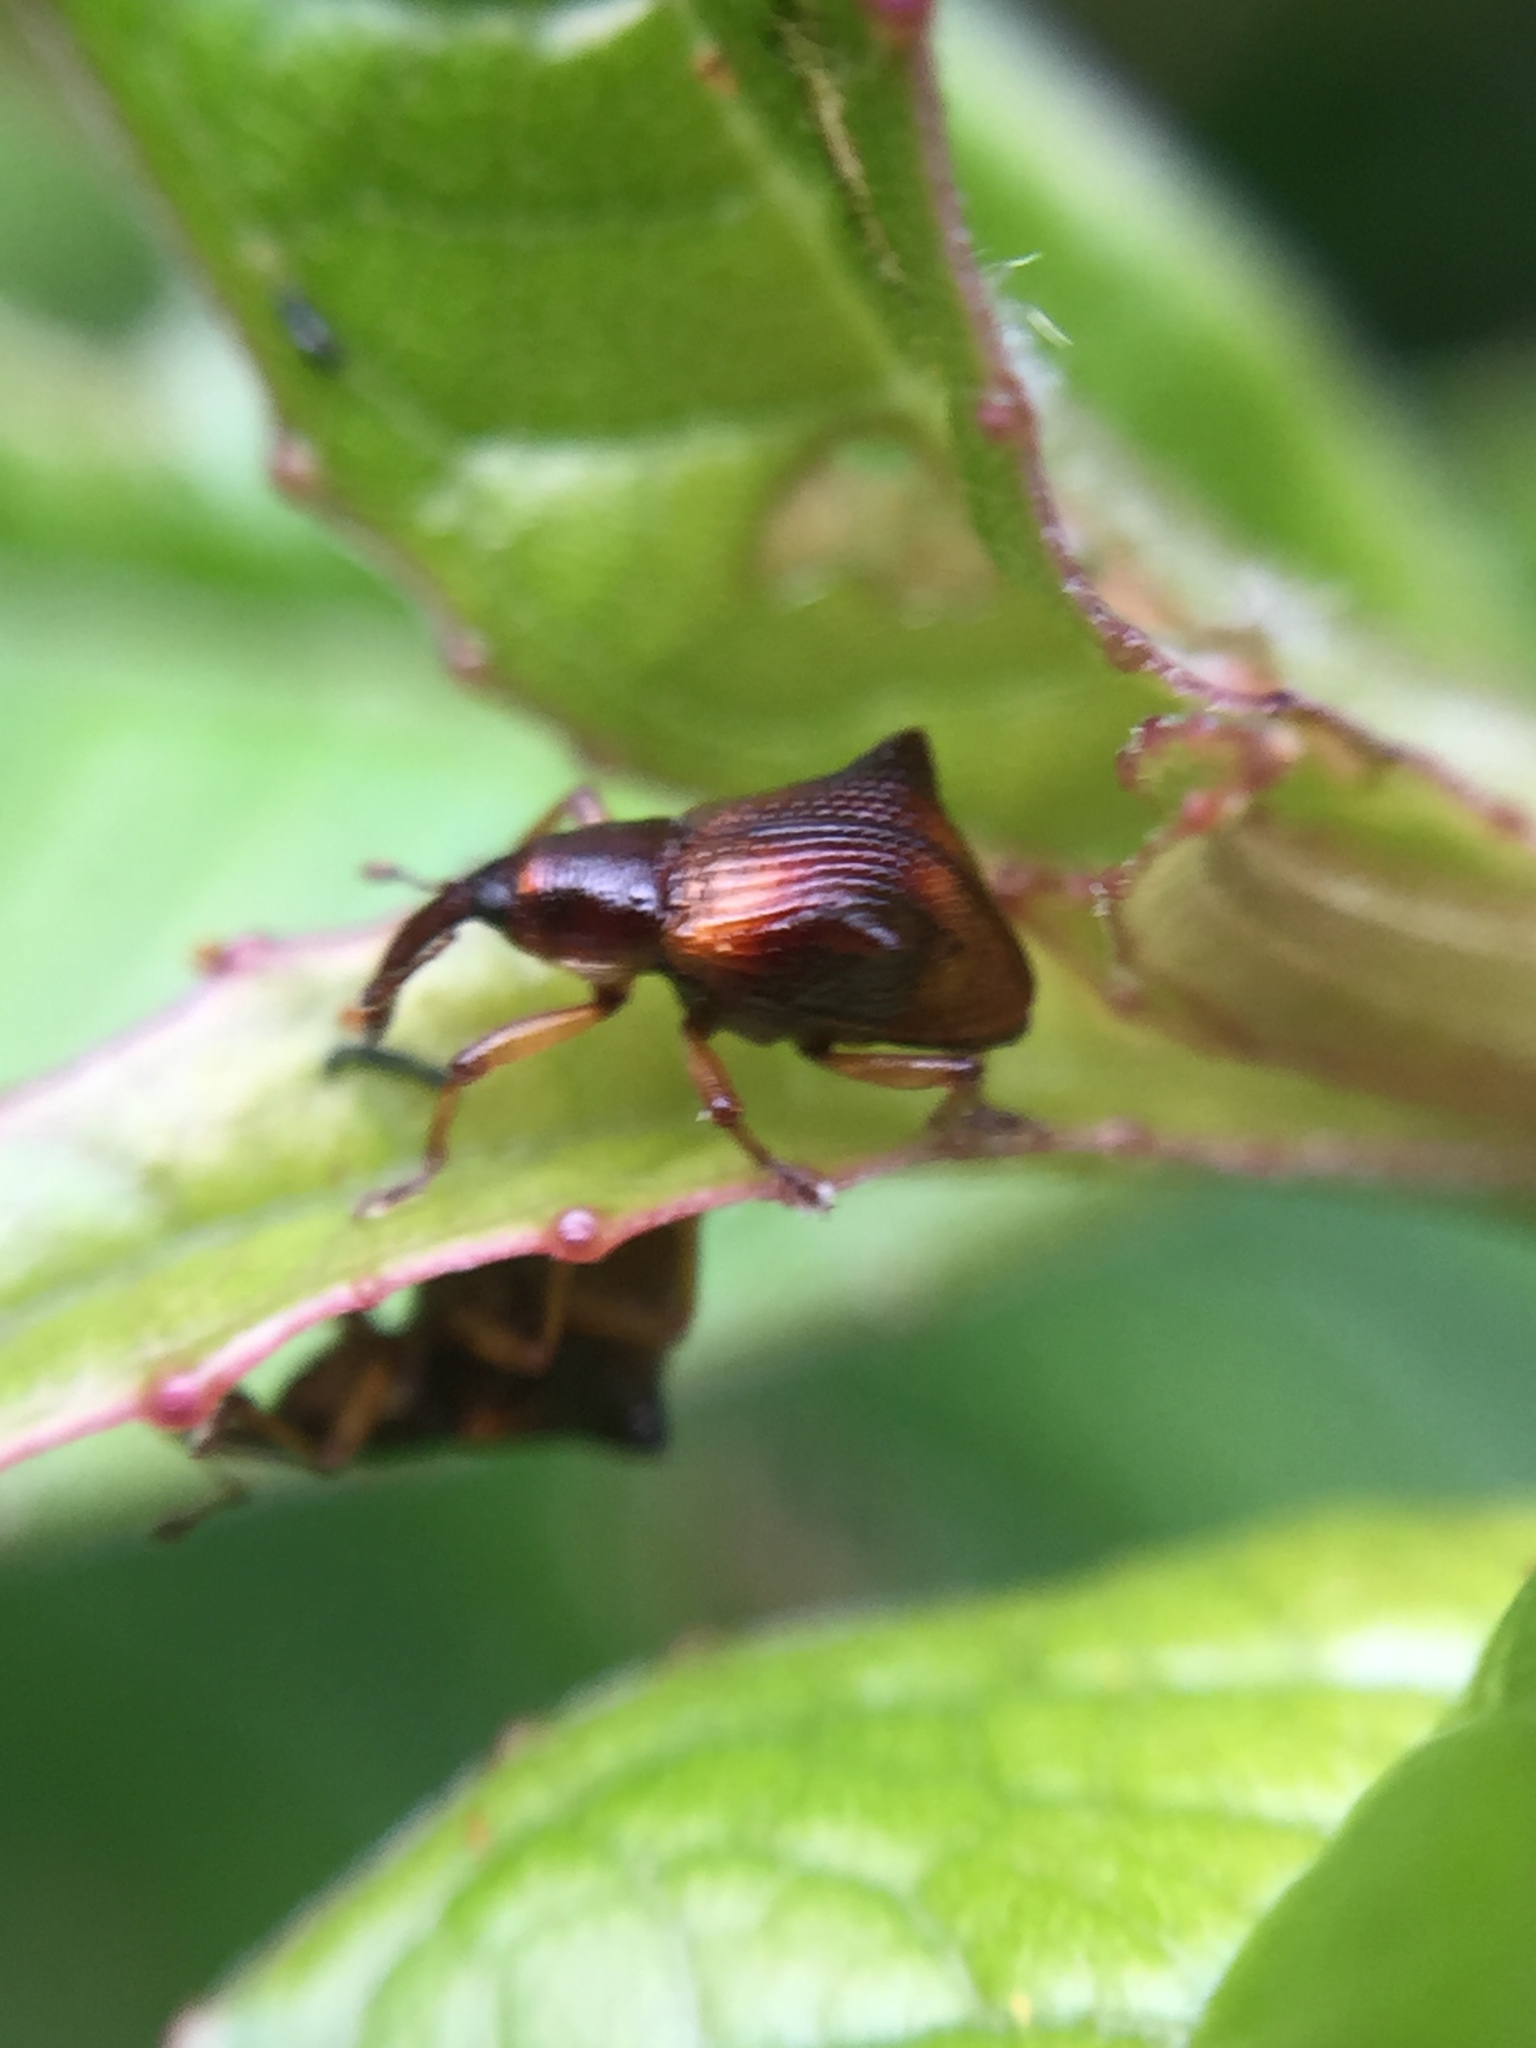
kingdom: Animalia
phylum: Arthropoda
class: Insecta
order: Coleoptera
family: Curculionidae
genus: Oropterus
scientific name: Oropterus coniger
